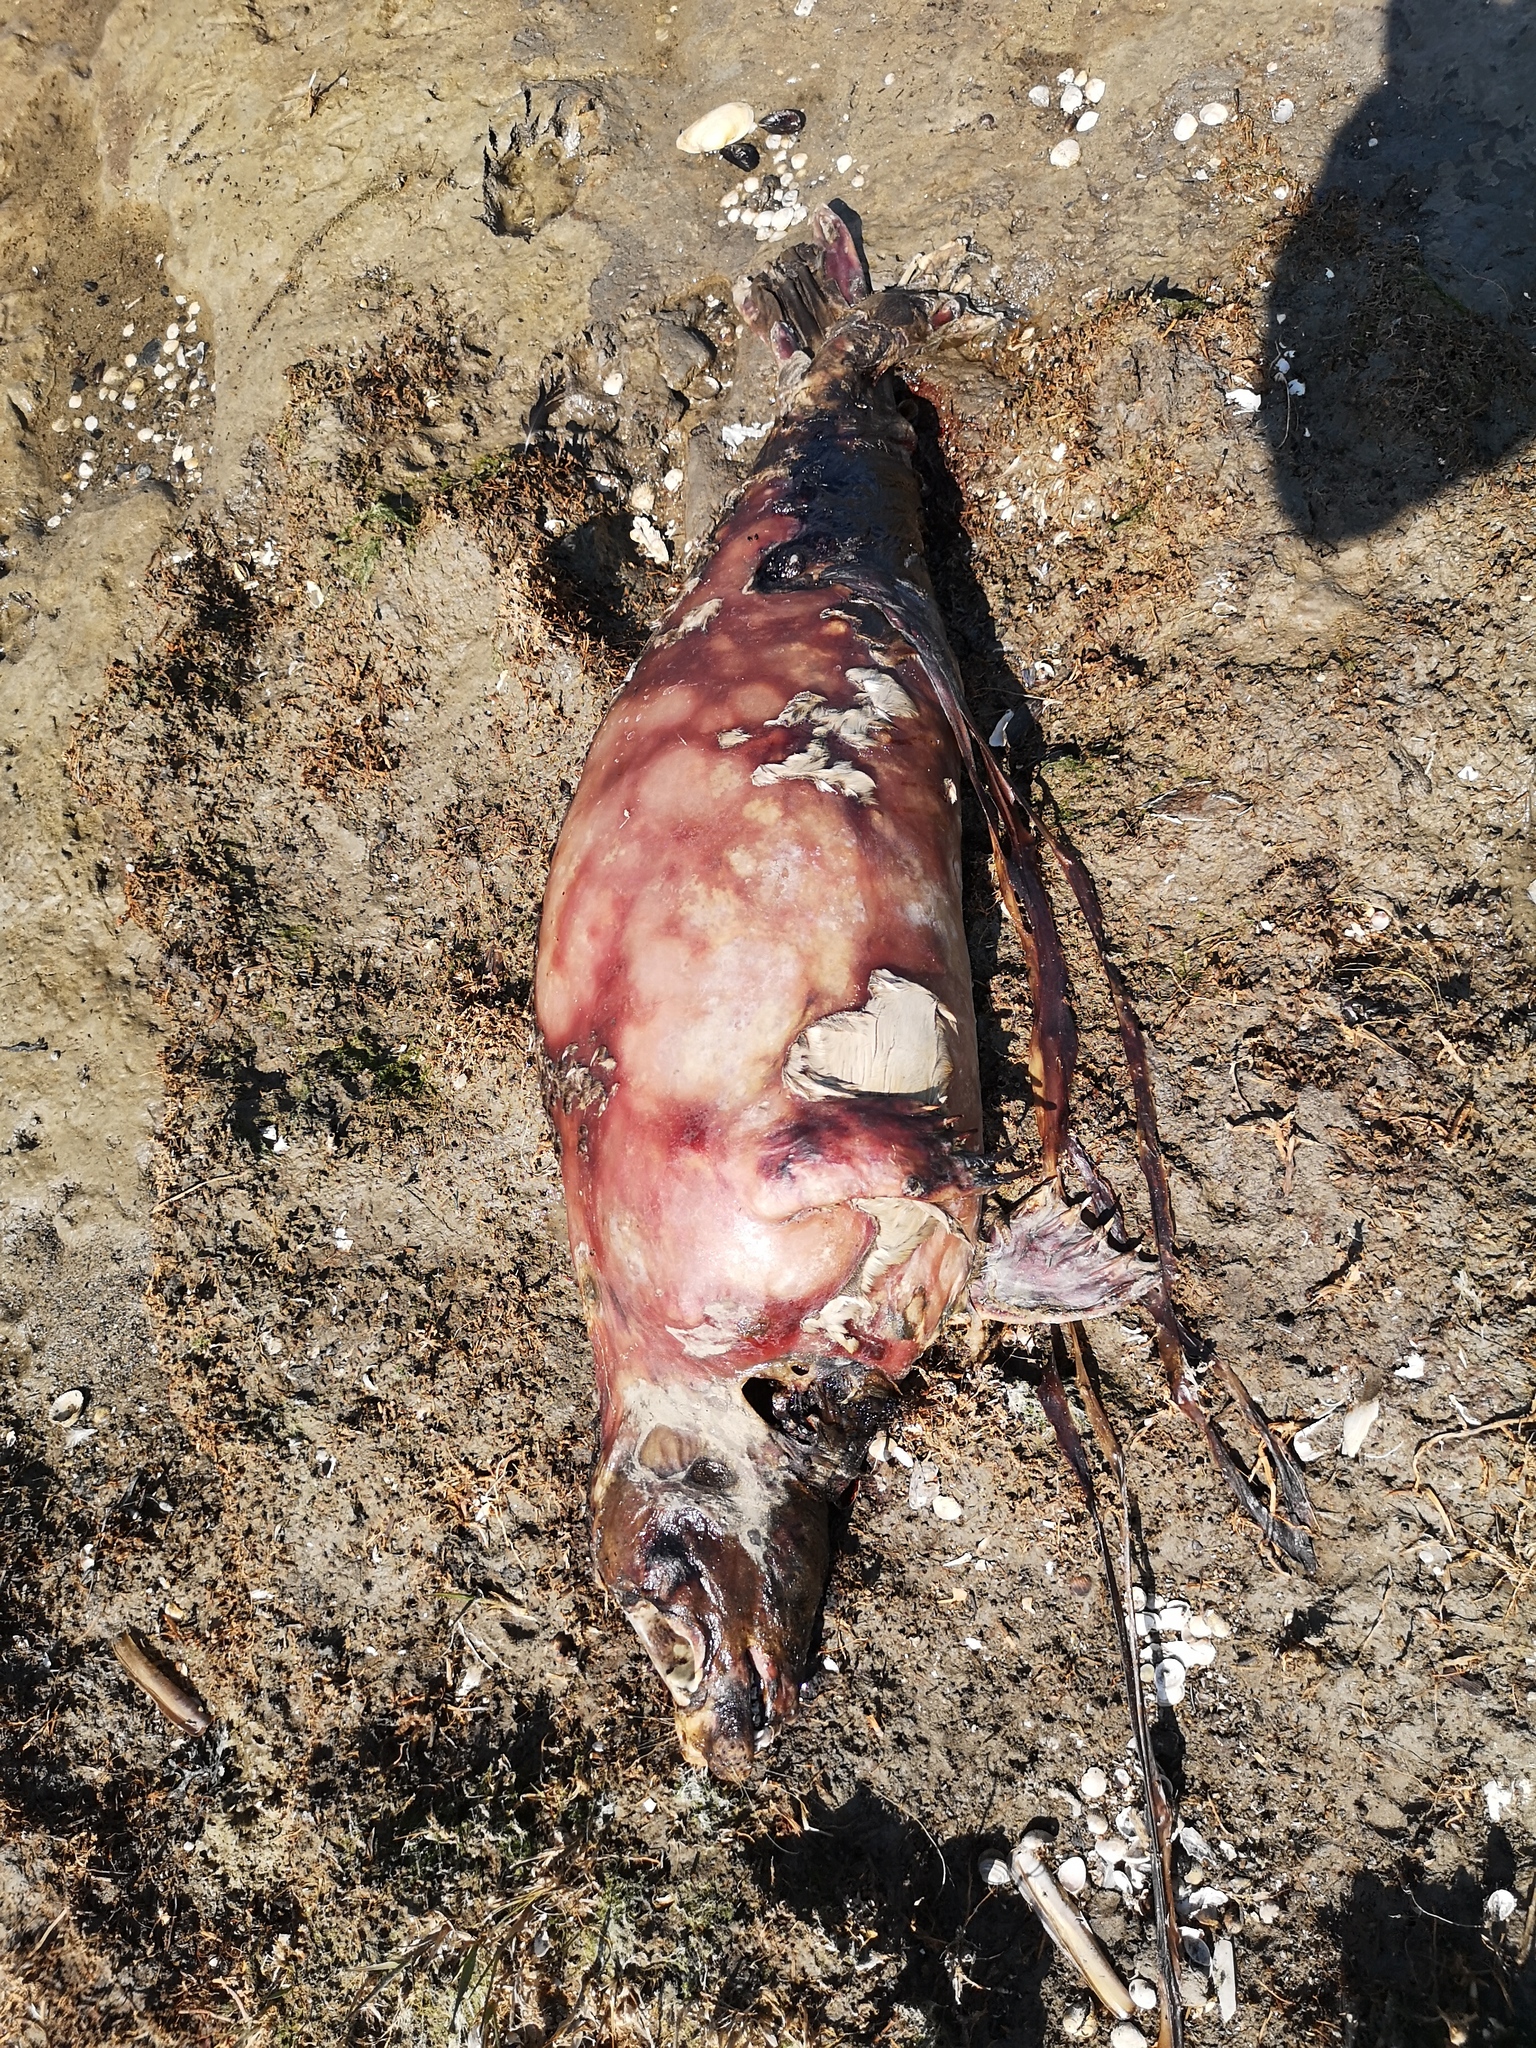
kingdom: Animalia
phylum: Chordata
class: Mammalia
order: Carnivora
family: Phocidae
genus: Phoca
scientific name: Phoca vitulina
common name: Harbor seal
